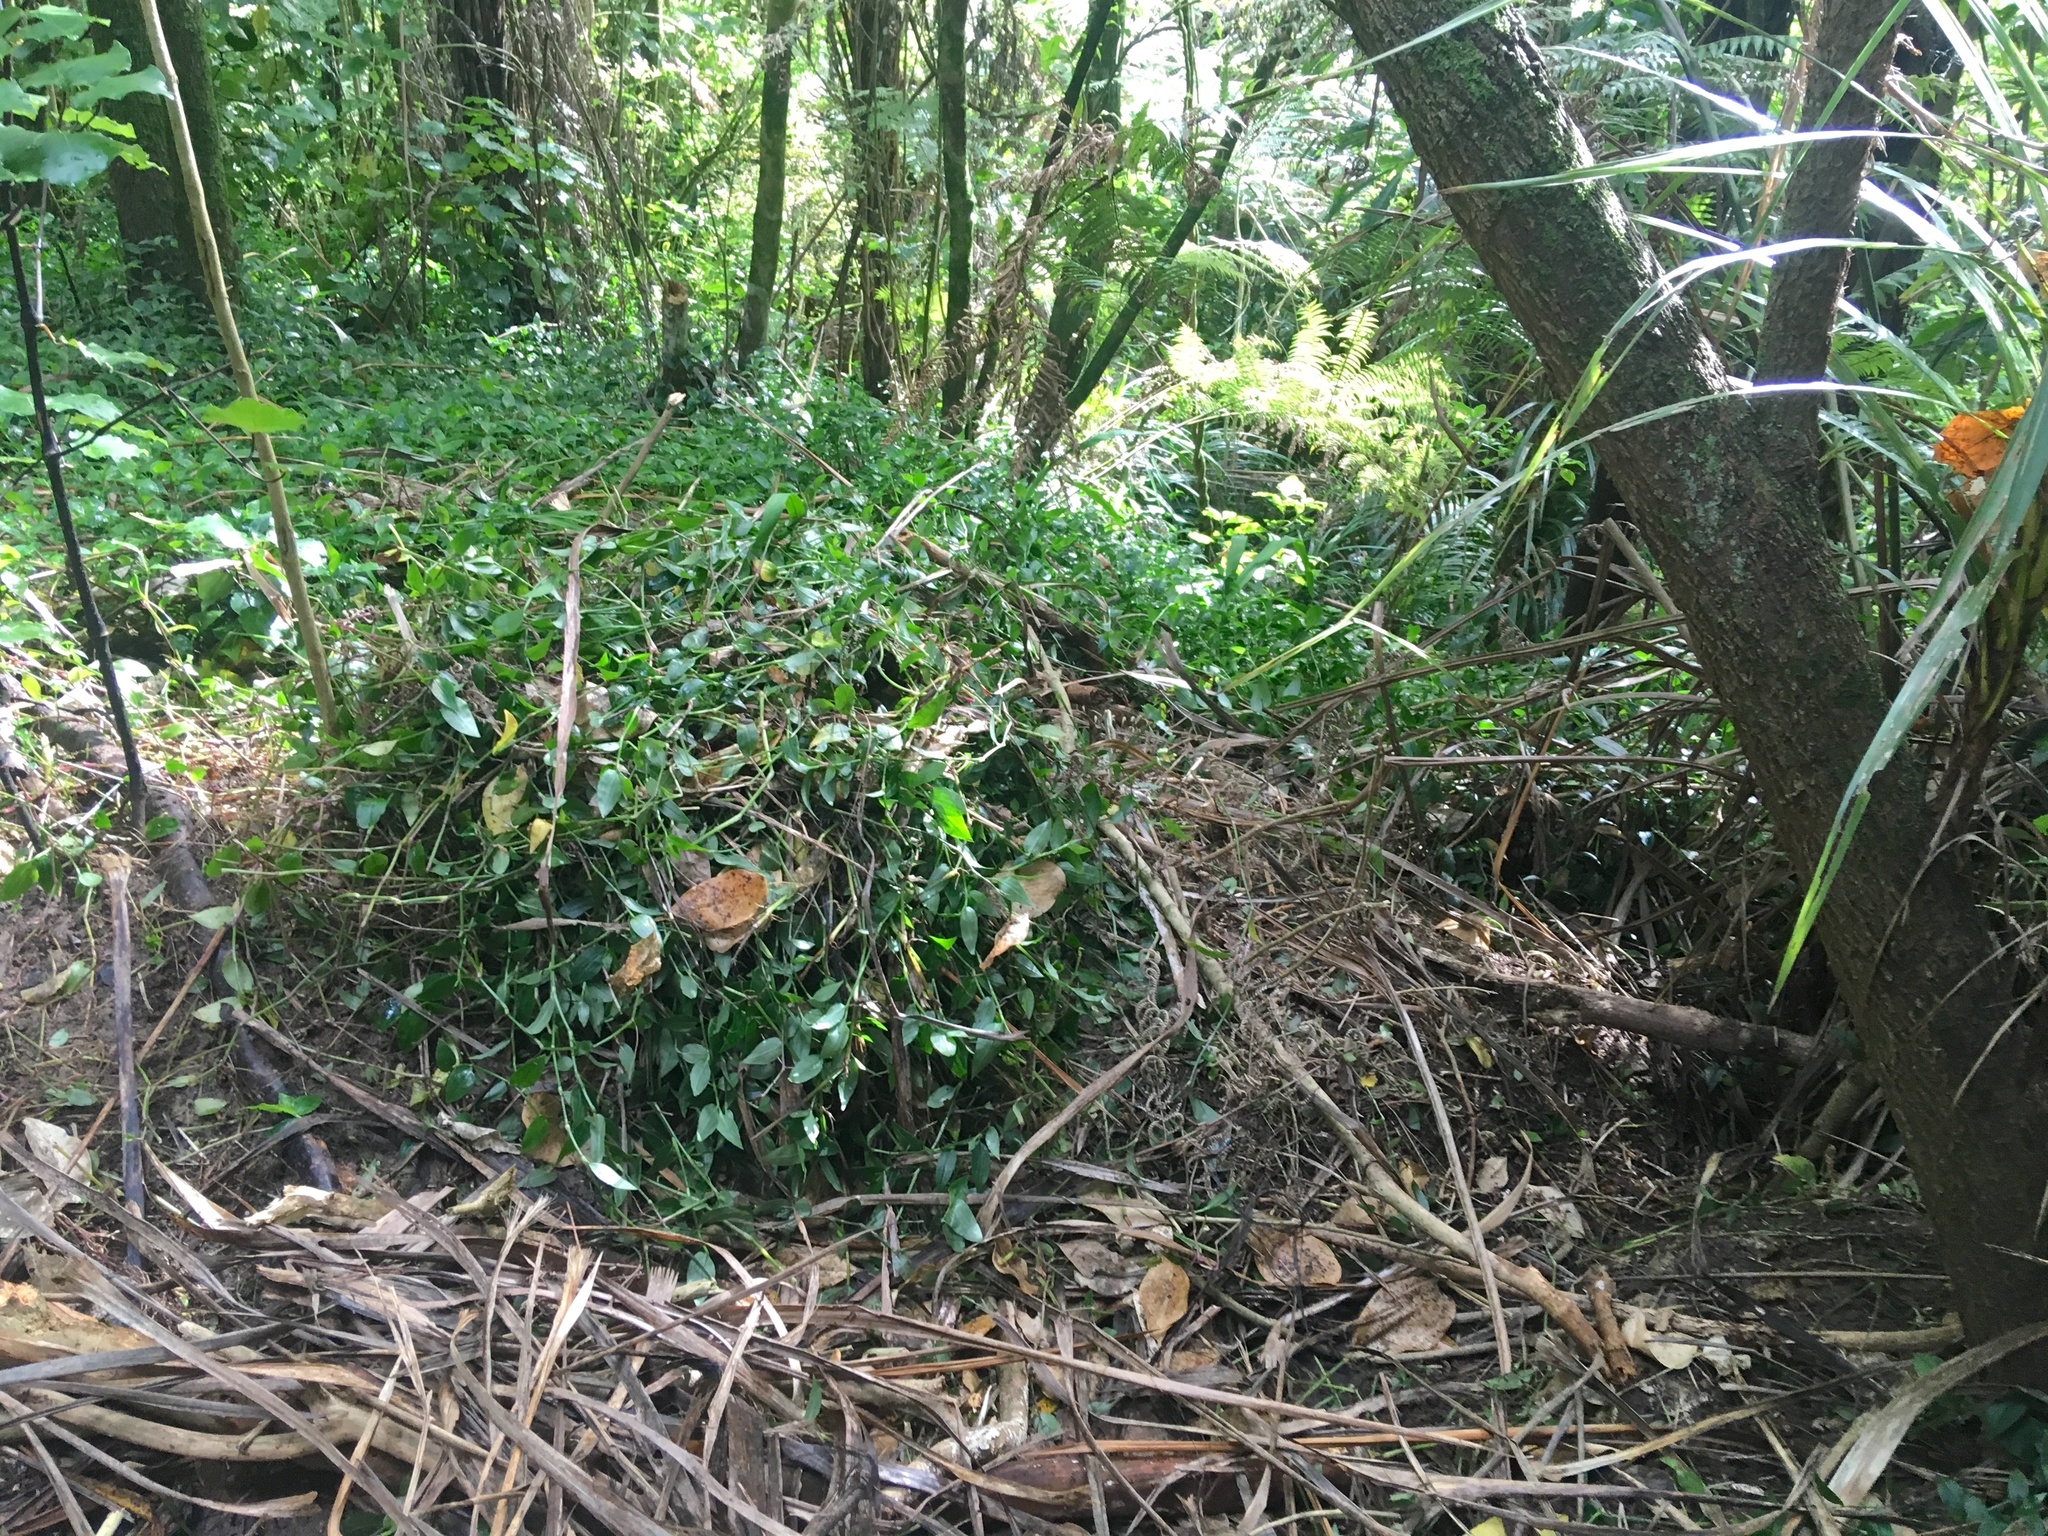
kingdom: Plantae
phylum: Tracheophyta
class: Liliopsida
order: Commelinales
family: Commelinaceae
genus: Tradescantia
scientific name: Tradescantia fluminensis
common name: Wandering-jew
